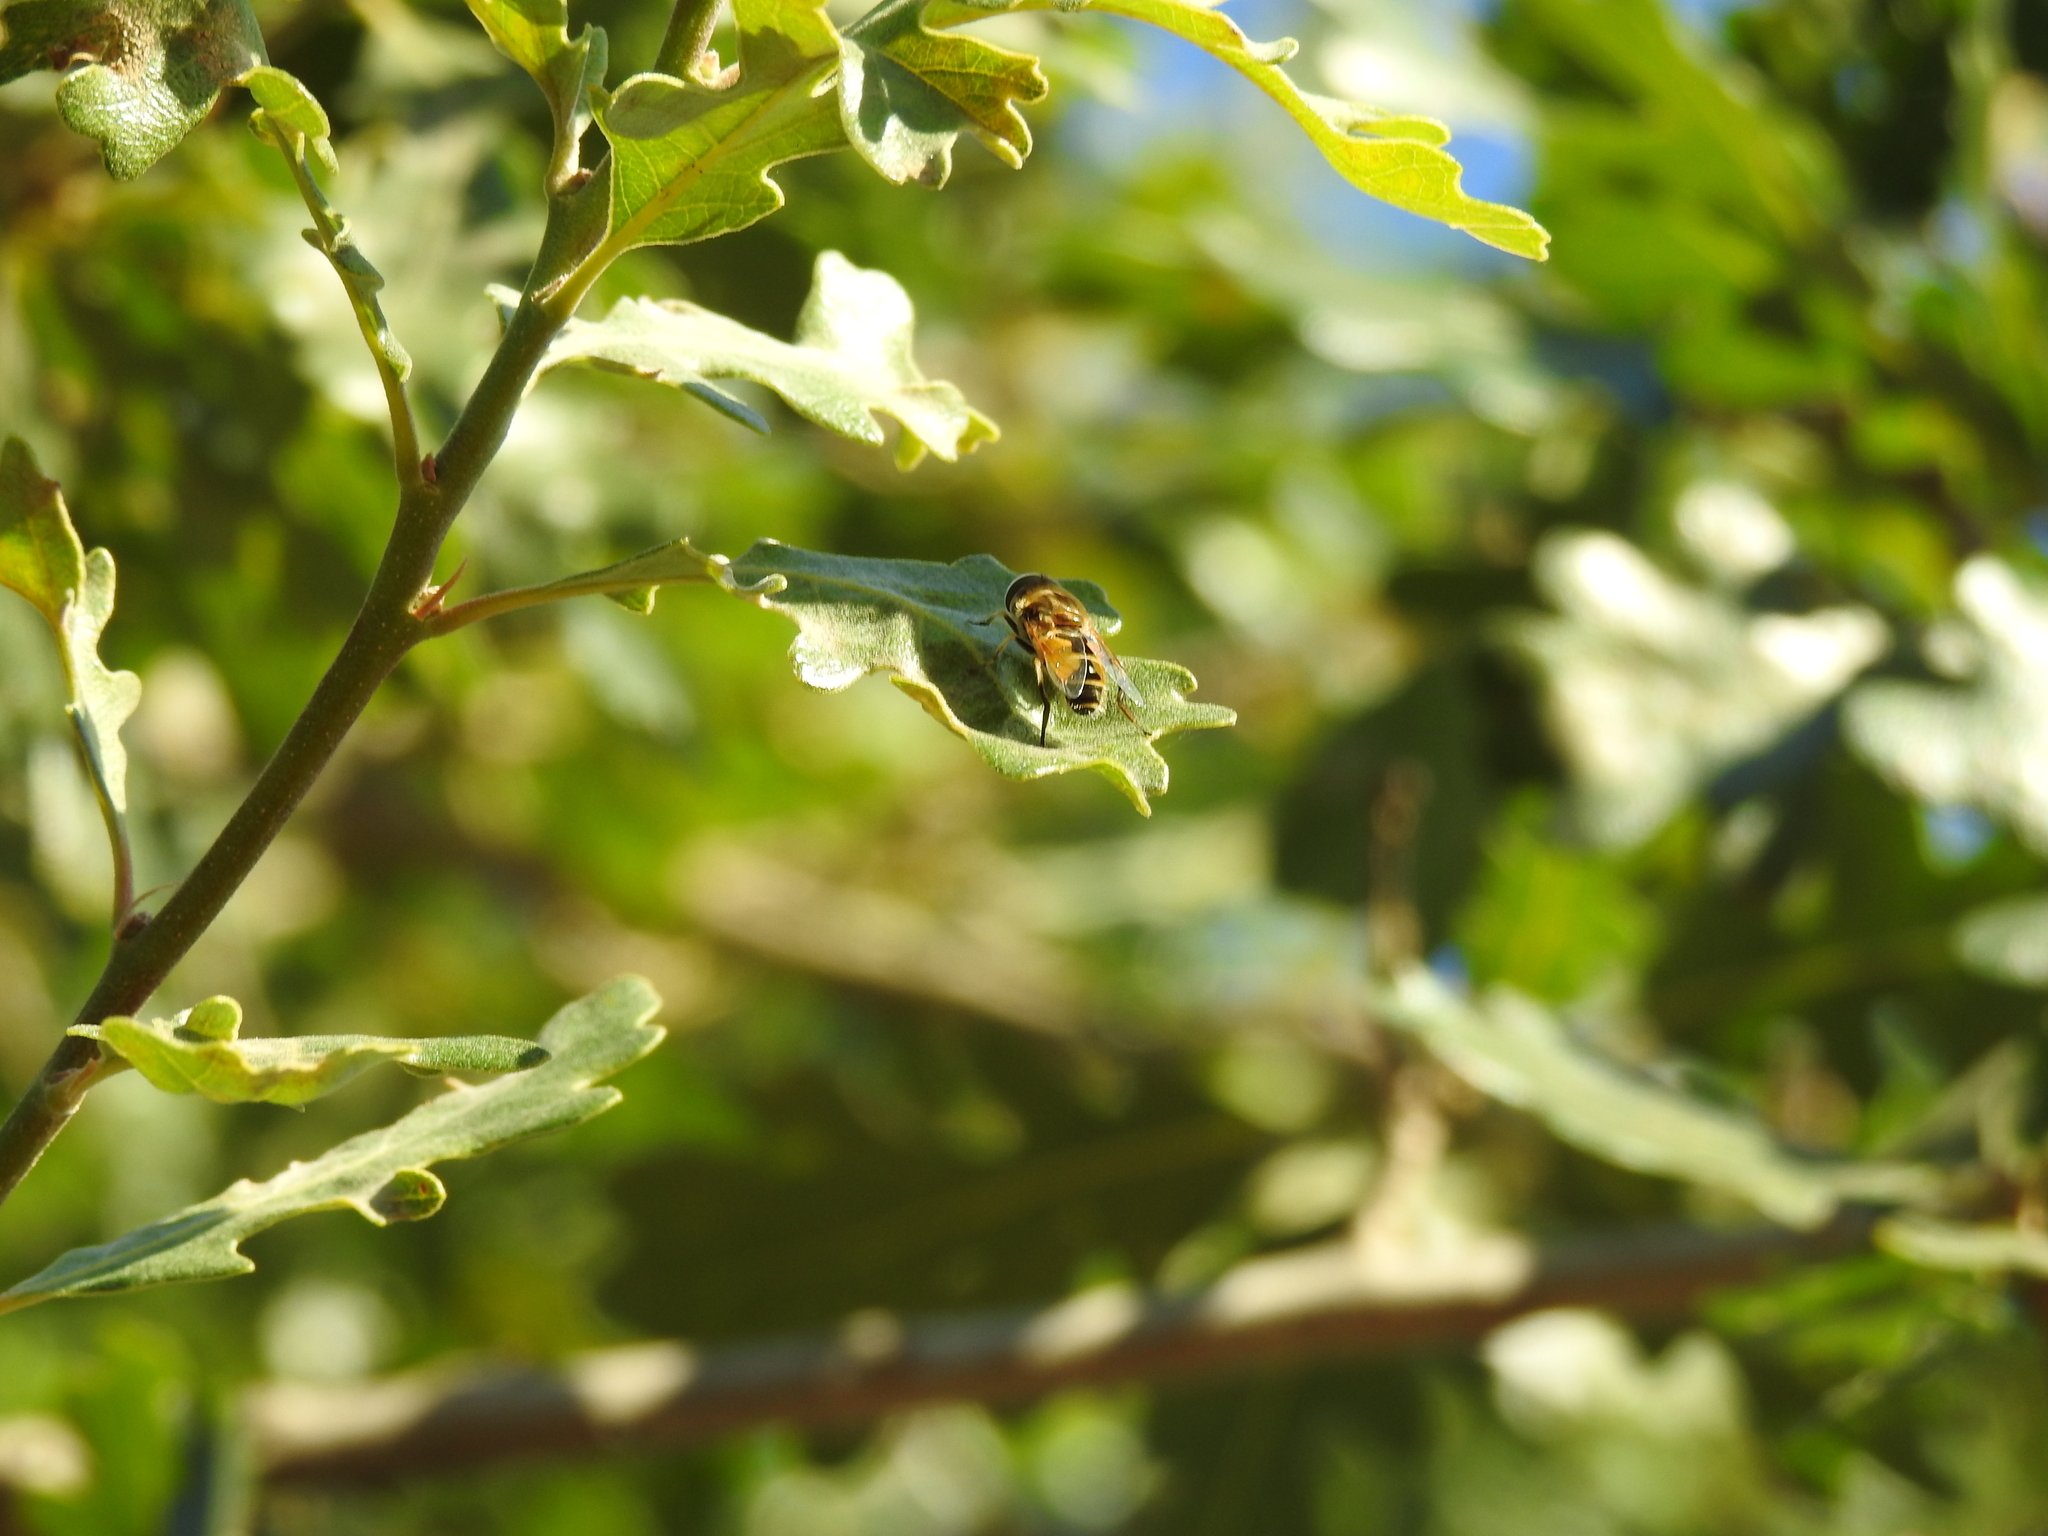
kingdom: Animalia
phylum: Arthropoda
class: Insecta
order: Diptera
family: Syrphidae
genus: Eristalis
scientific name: Eristalis arbustorum
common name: Hover fly
